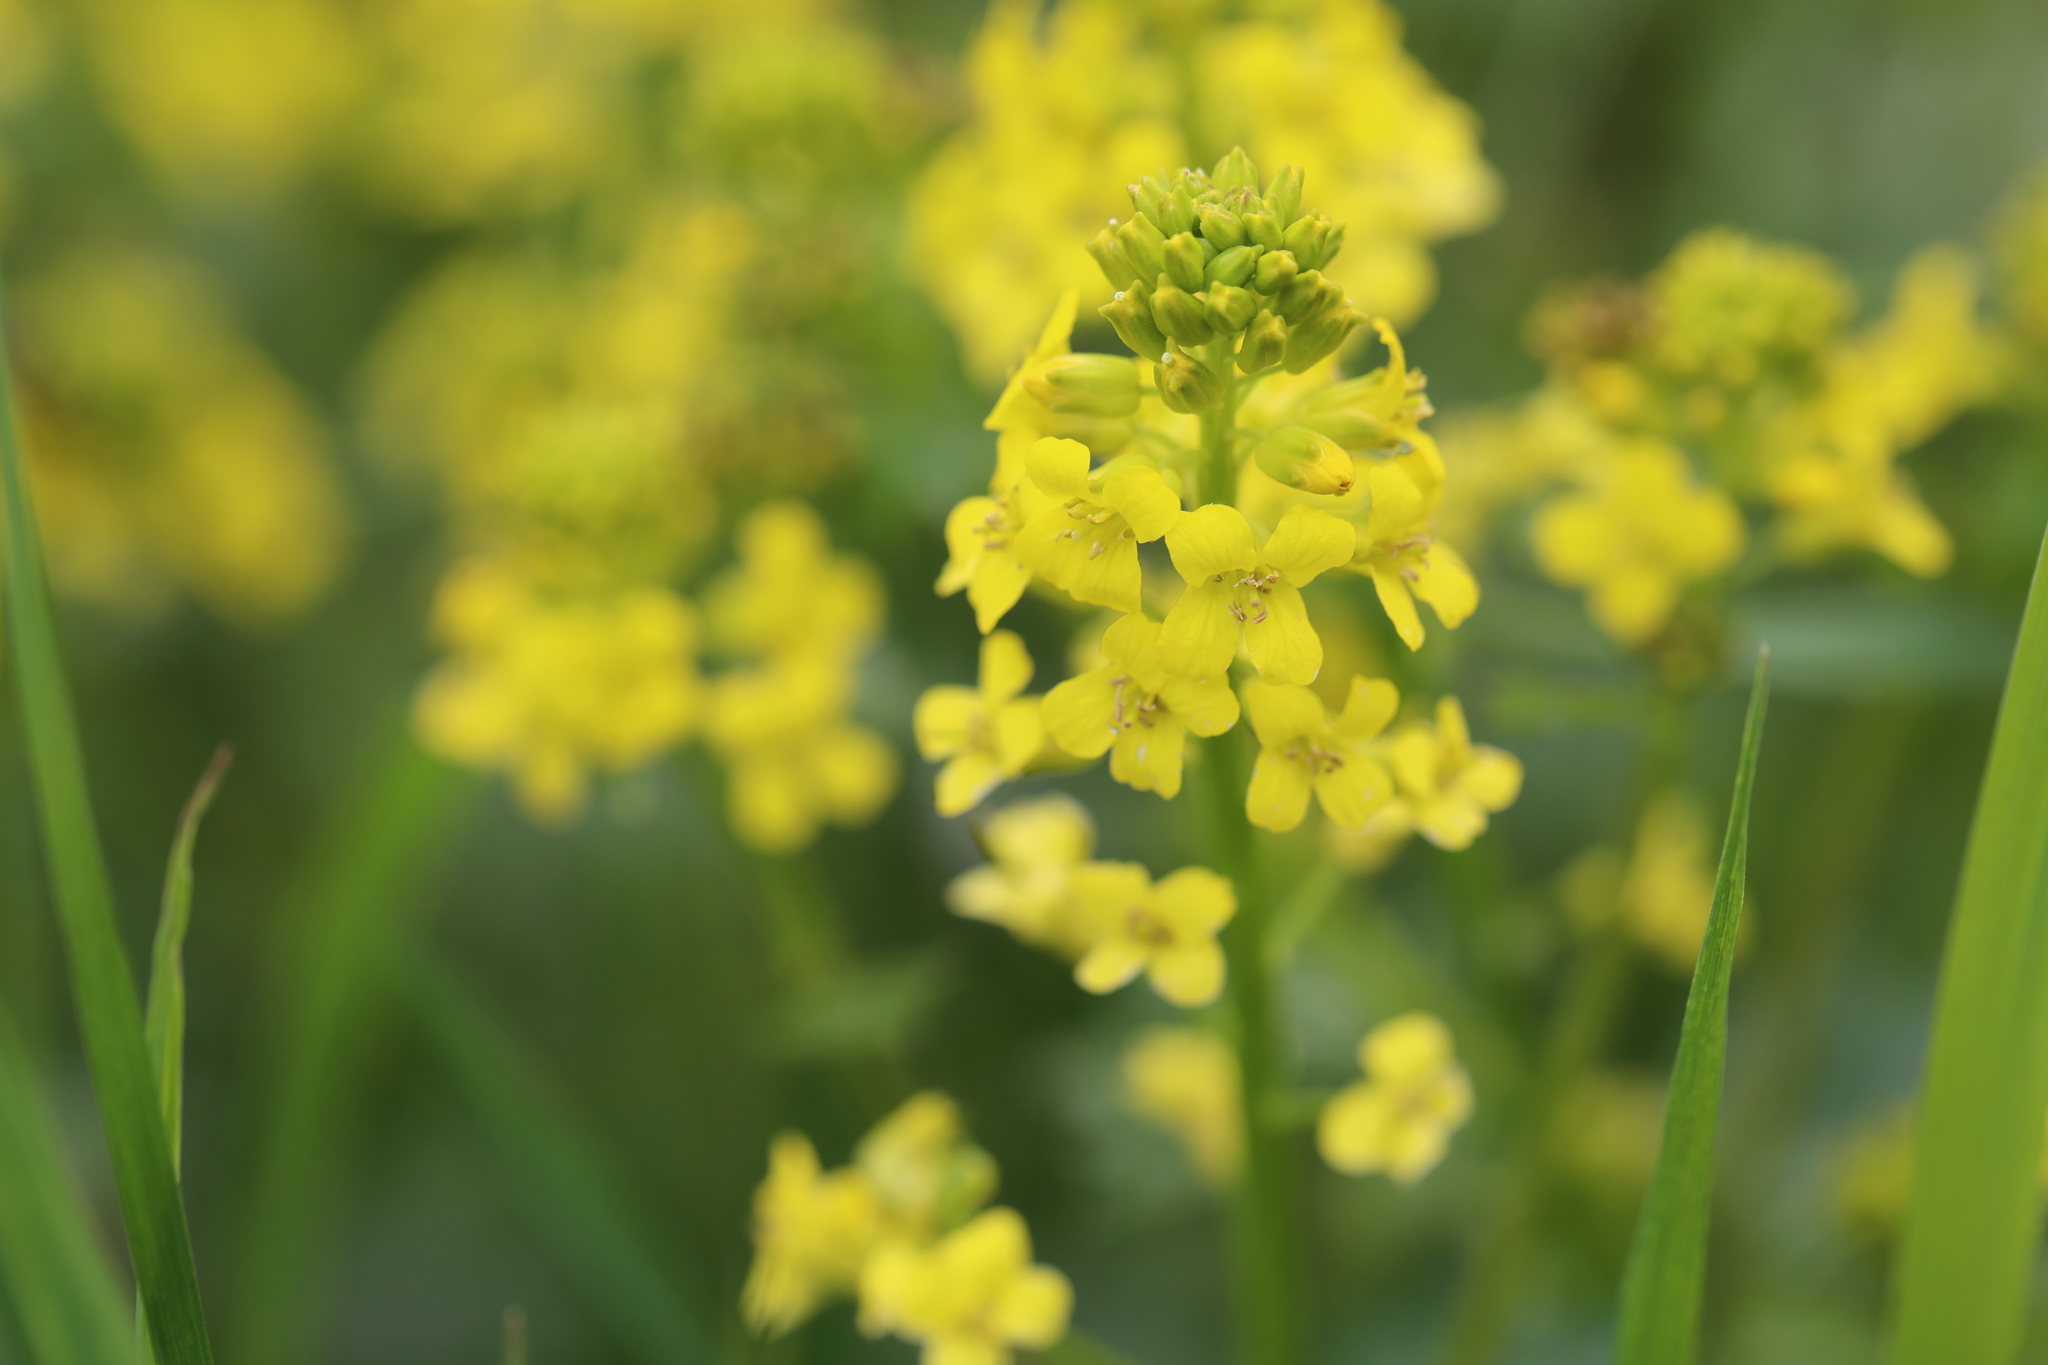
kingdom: Plantae
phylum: Tracheophyta
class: Magnoliopsida
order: Brassicales
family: Brassicaceae
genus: Barbarea
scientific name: Barbarea vulgaris
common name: Cressy-greens
